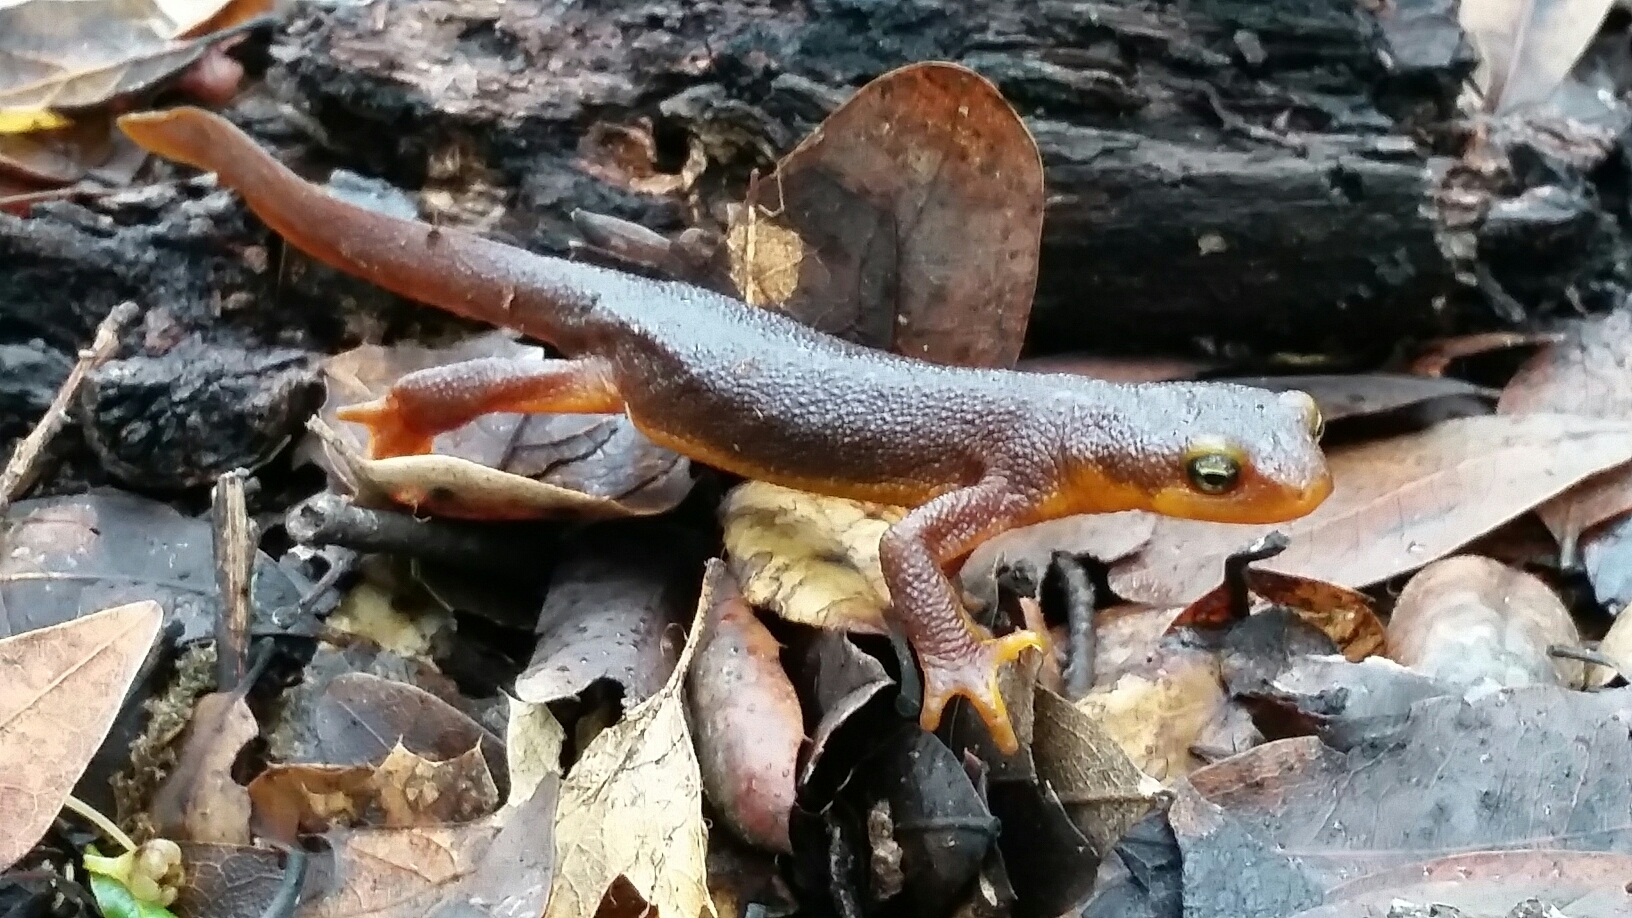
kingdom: Animalia
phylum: Chordata
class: Amphibia
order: Caudata
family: Salamandridae
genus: Taricha
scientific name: Taricha torosa
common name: California newt
